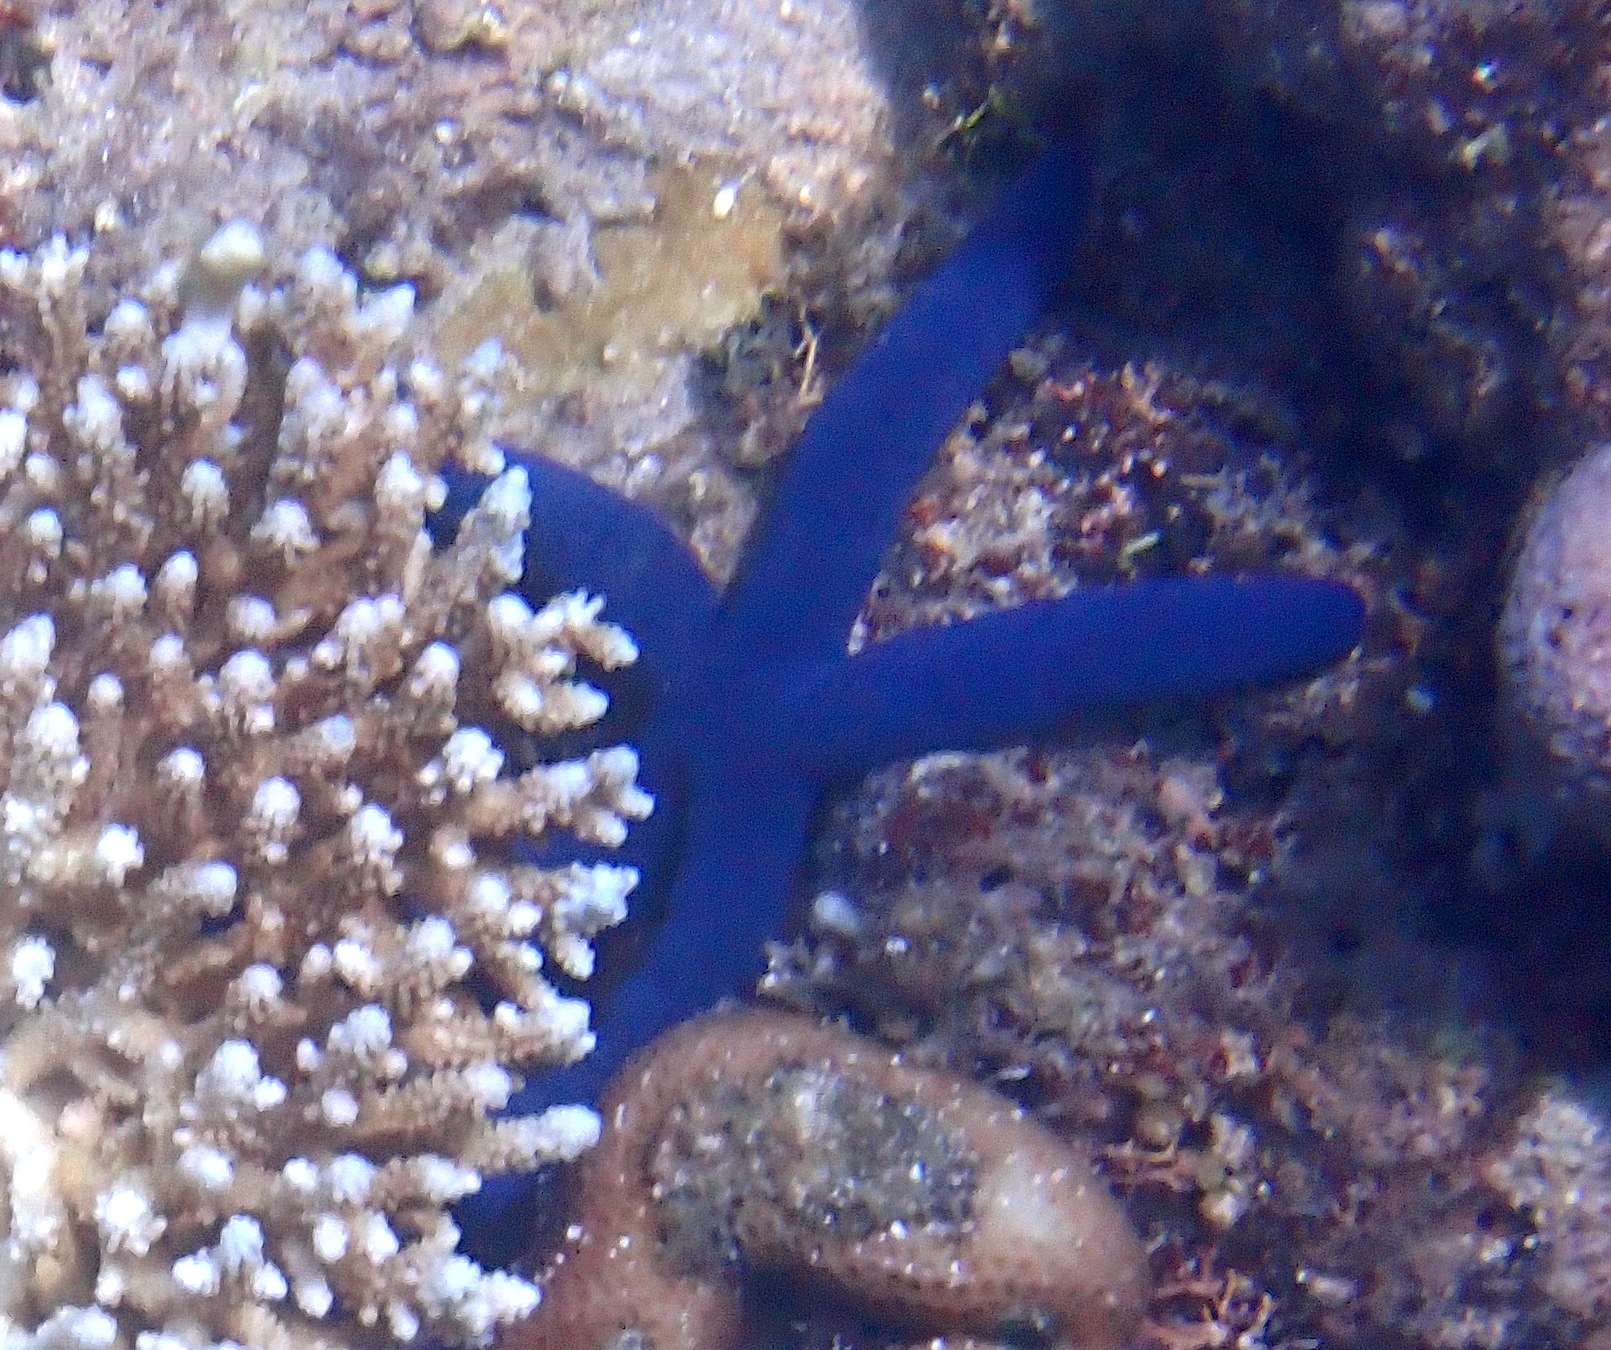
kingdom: Animalia
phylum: Echinodermata
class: Asteroidea
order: Valvatida
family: Ophidiasteridae
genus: Linckia
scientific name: Linckia laevigata
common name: Azure sea star
